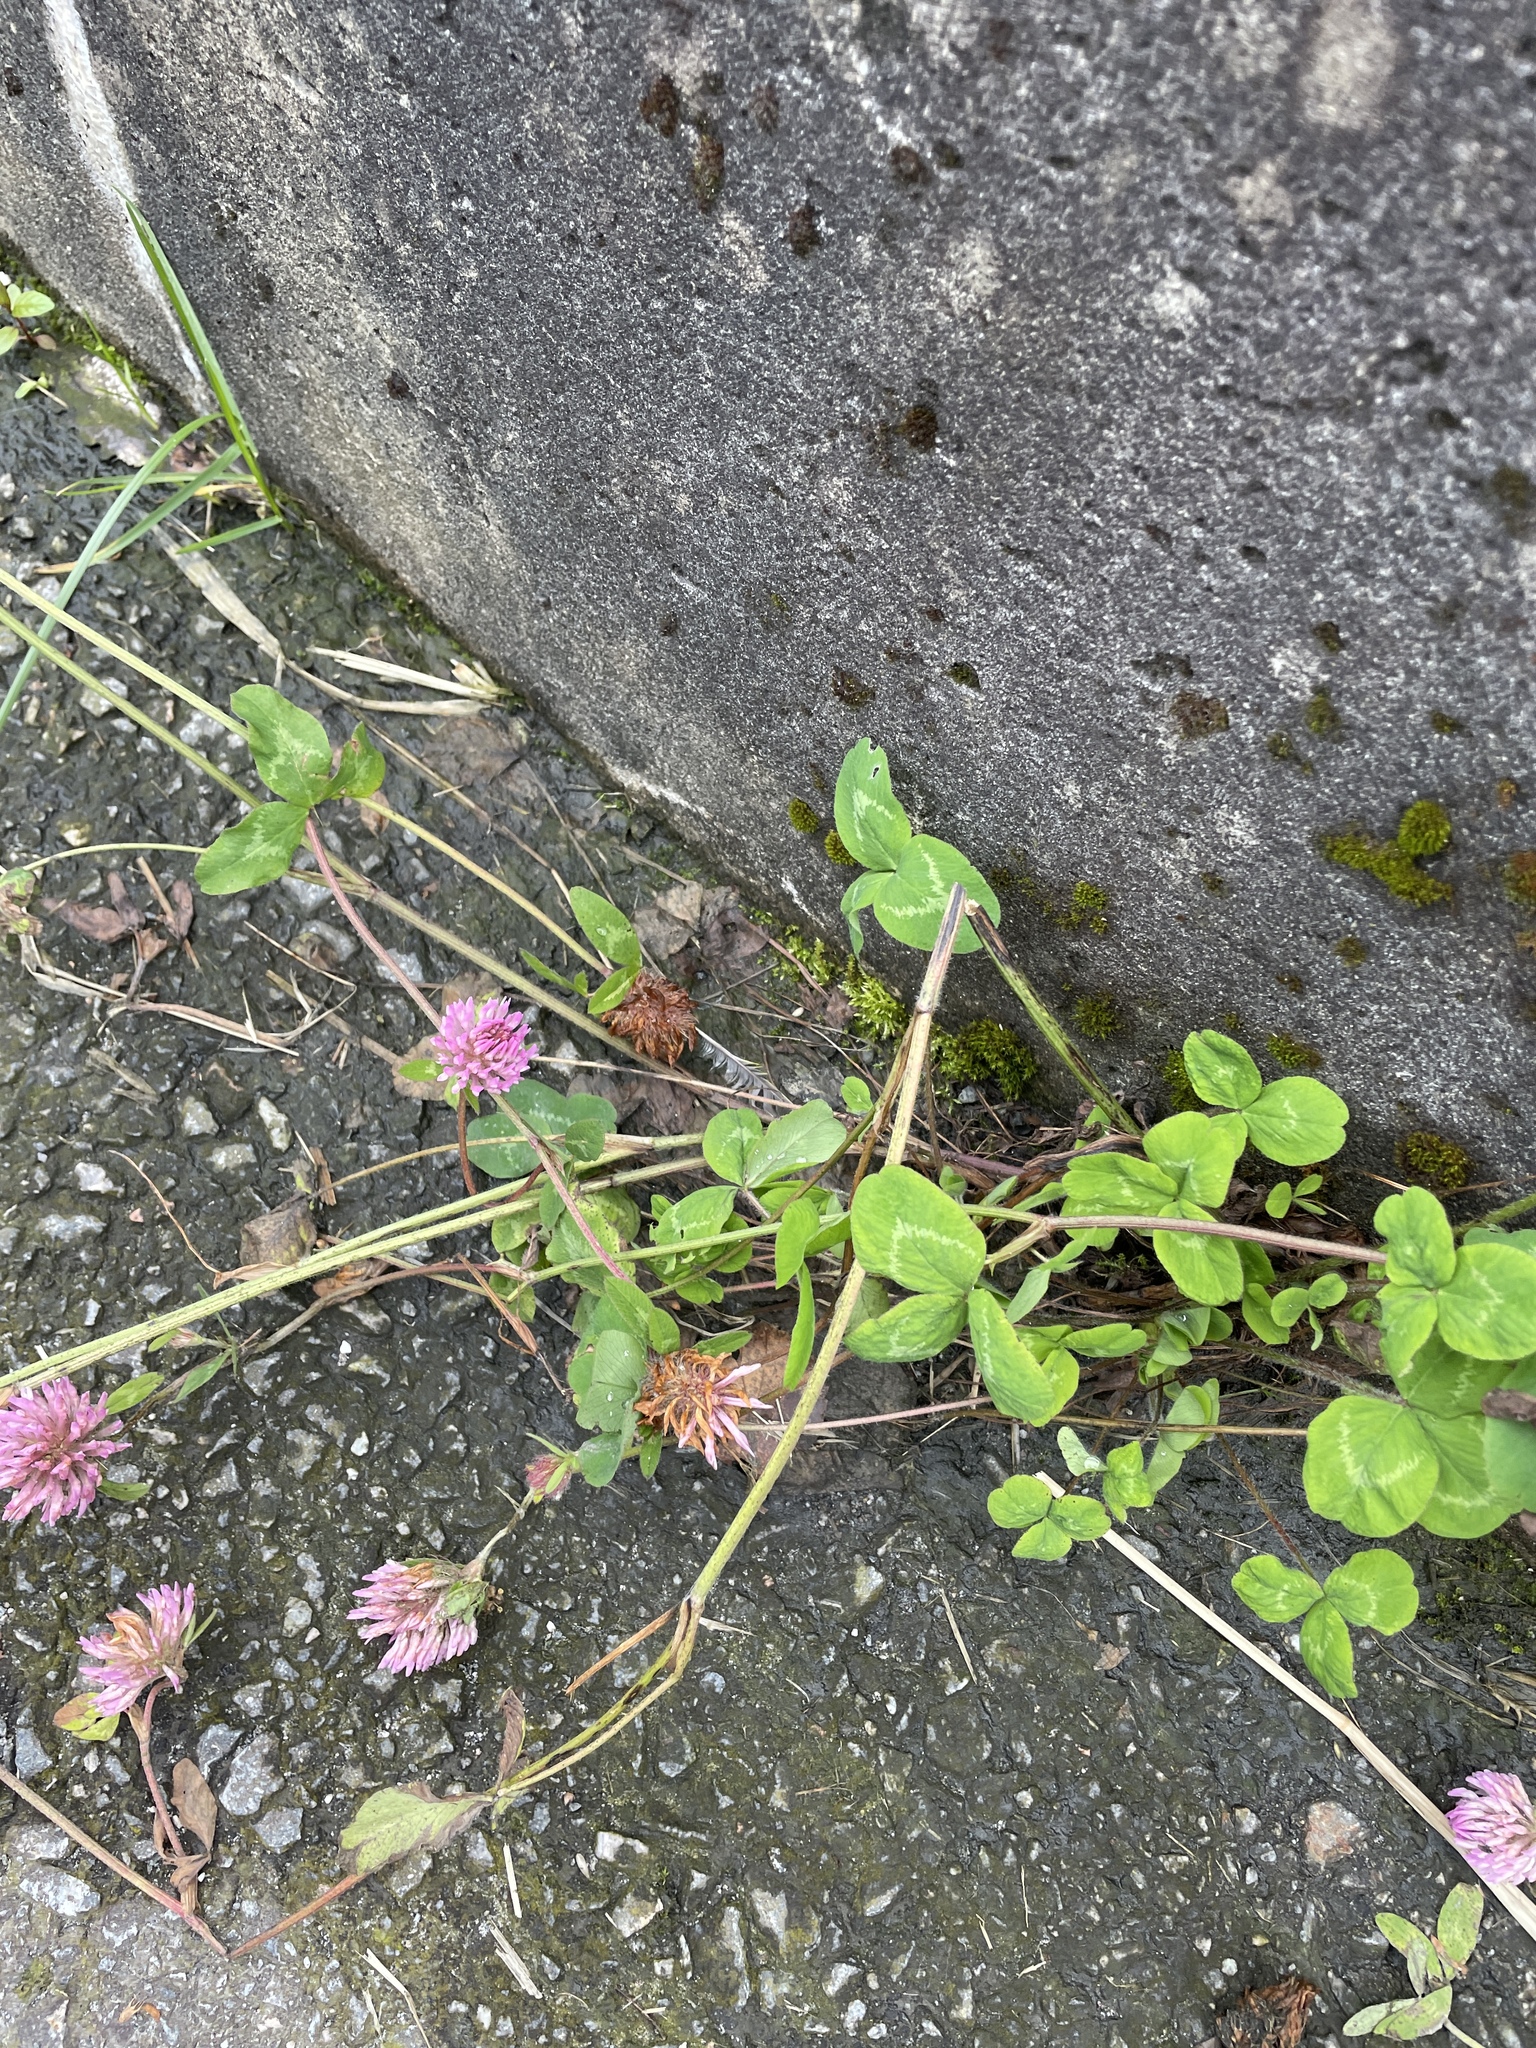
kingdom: Plantae
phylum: Tracheophyta
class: Magnoliopsida
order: Fabales
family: Fabaceae
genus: Trifolium
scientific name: Trifolium pratense
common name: Red clover
